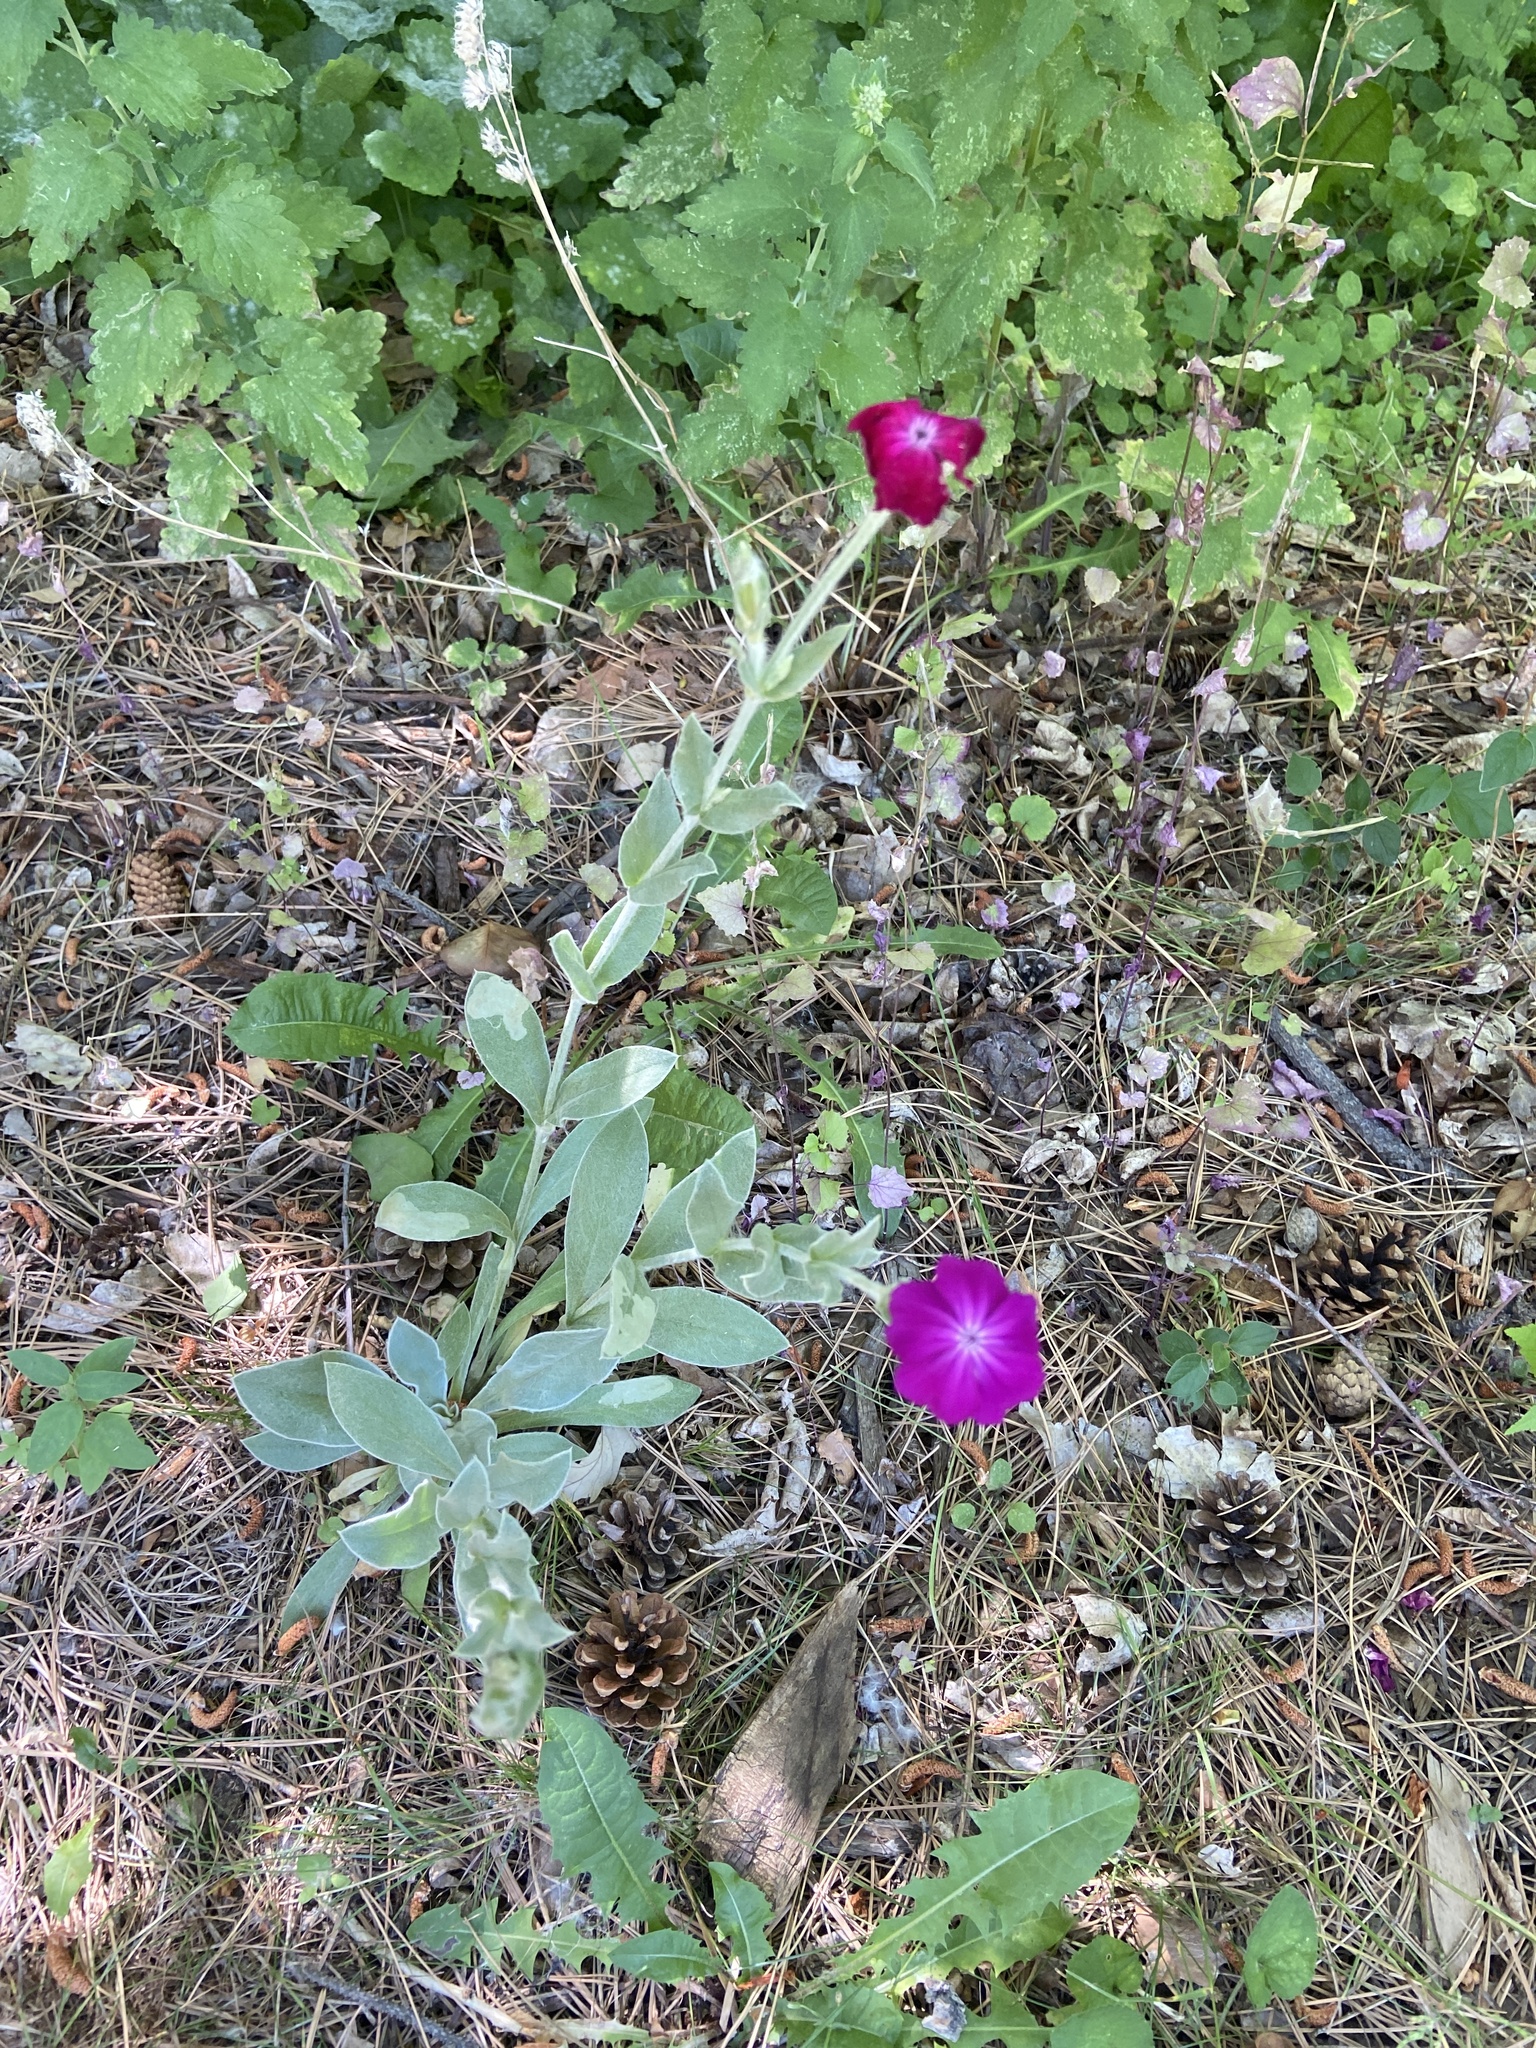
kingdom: Plantae
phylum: Tracheophyta
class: Magnoliopsida
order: Caryophyllales
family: Caryophyllaceae
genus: Silene
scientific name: Silene coronaria
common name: Rose campion
